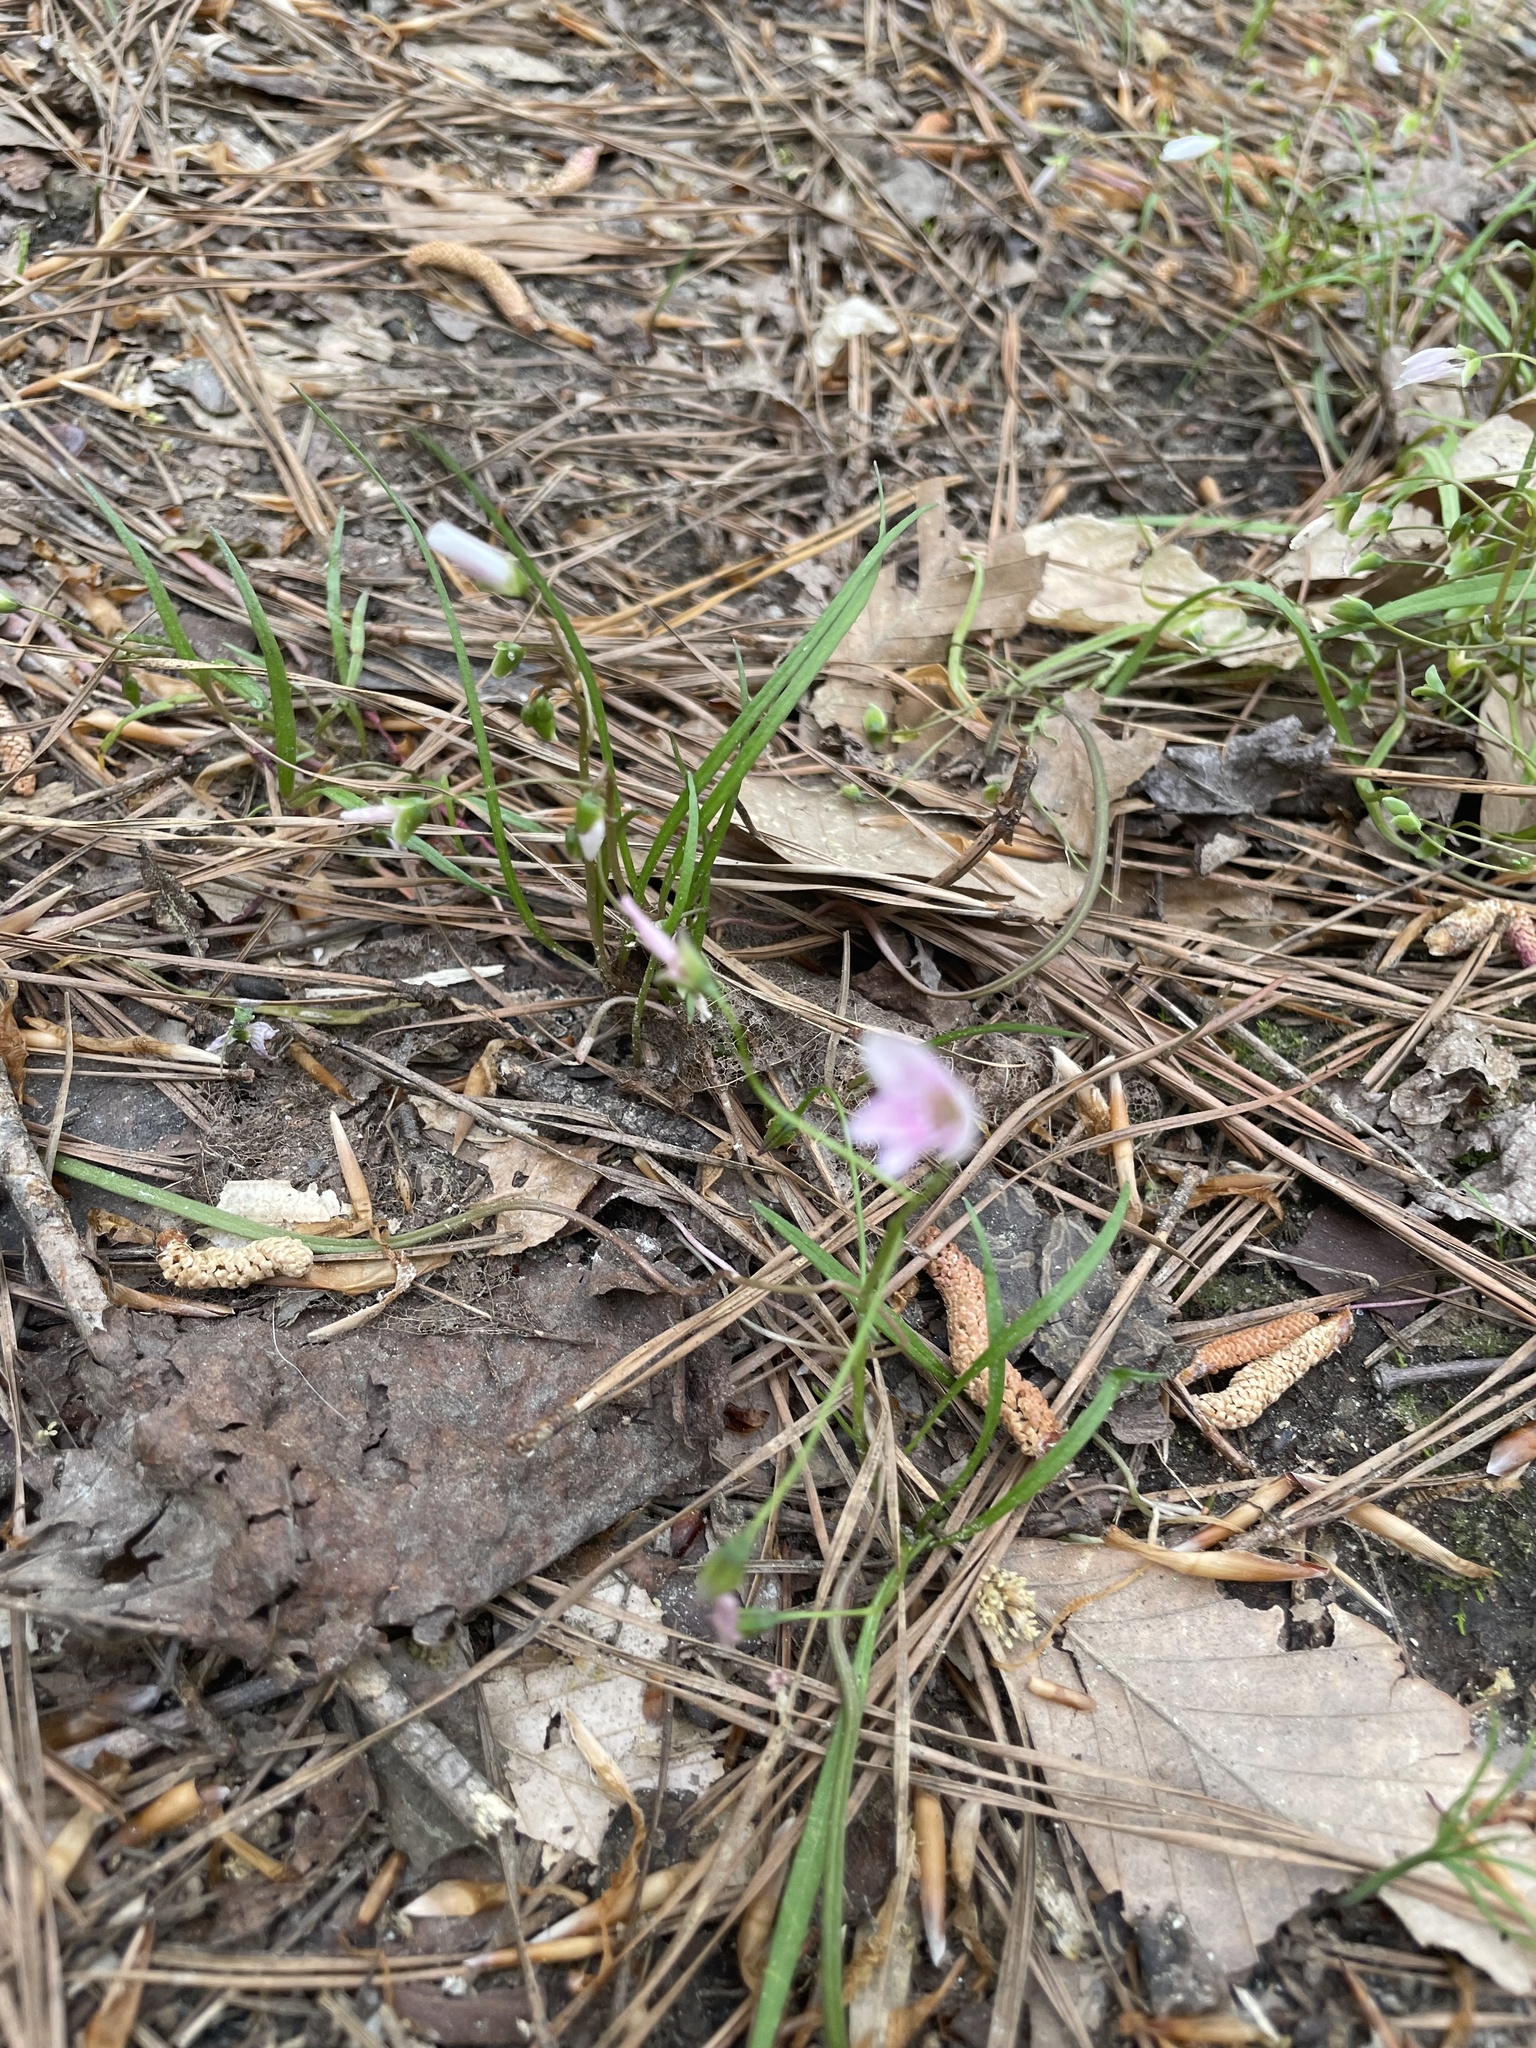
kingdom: Plantae
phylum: Tracheophyta
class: Magnoliopsida
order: Caryophyllales
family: Montiaceae
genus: Claytonia
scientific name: Claytonia virginica
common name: Virginia springbeauty
